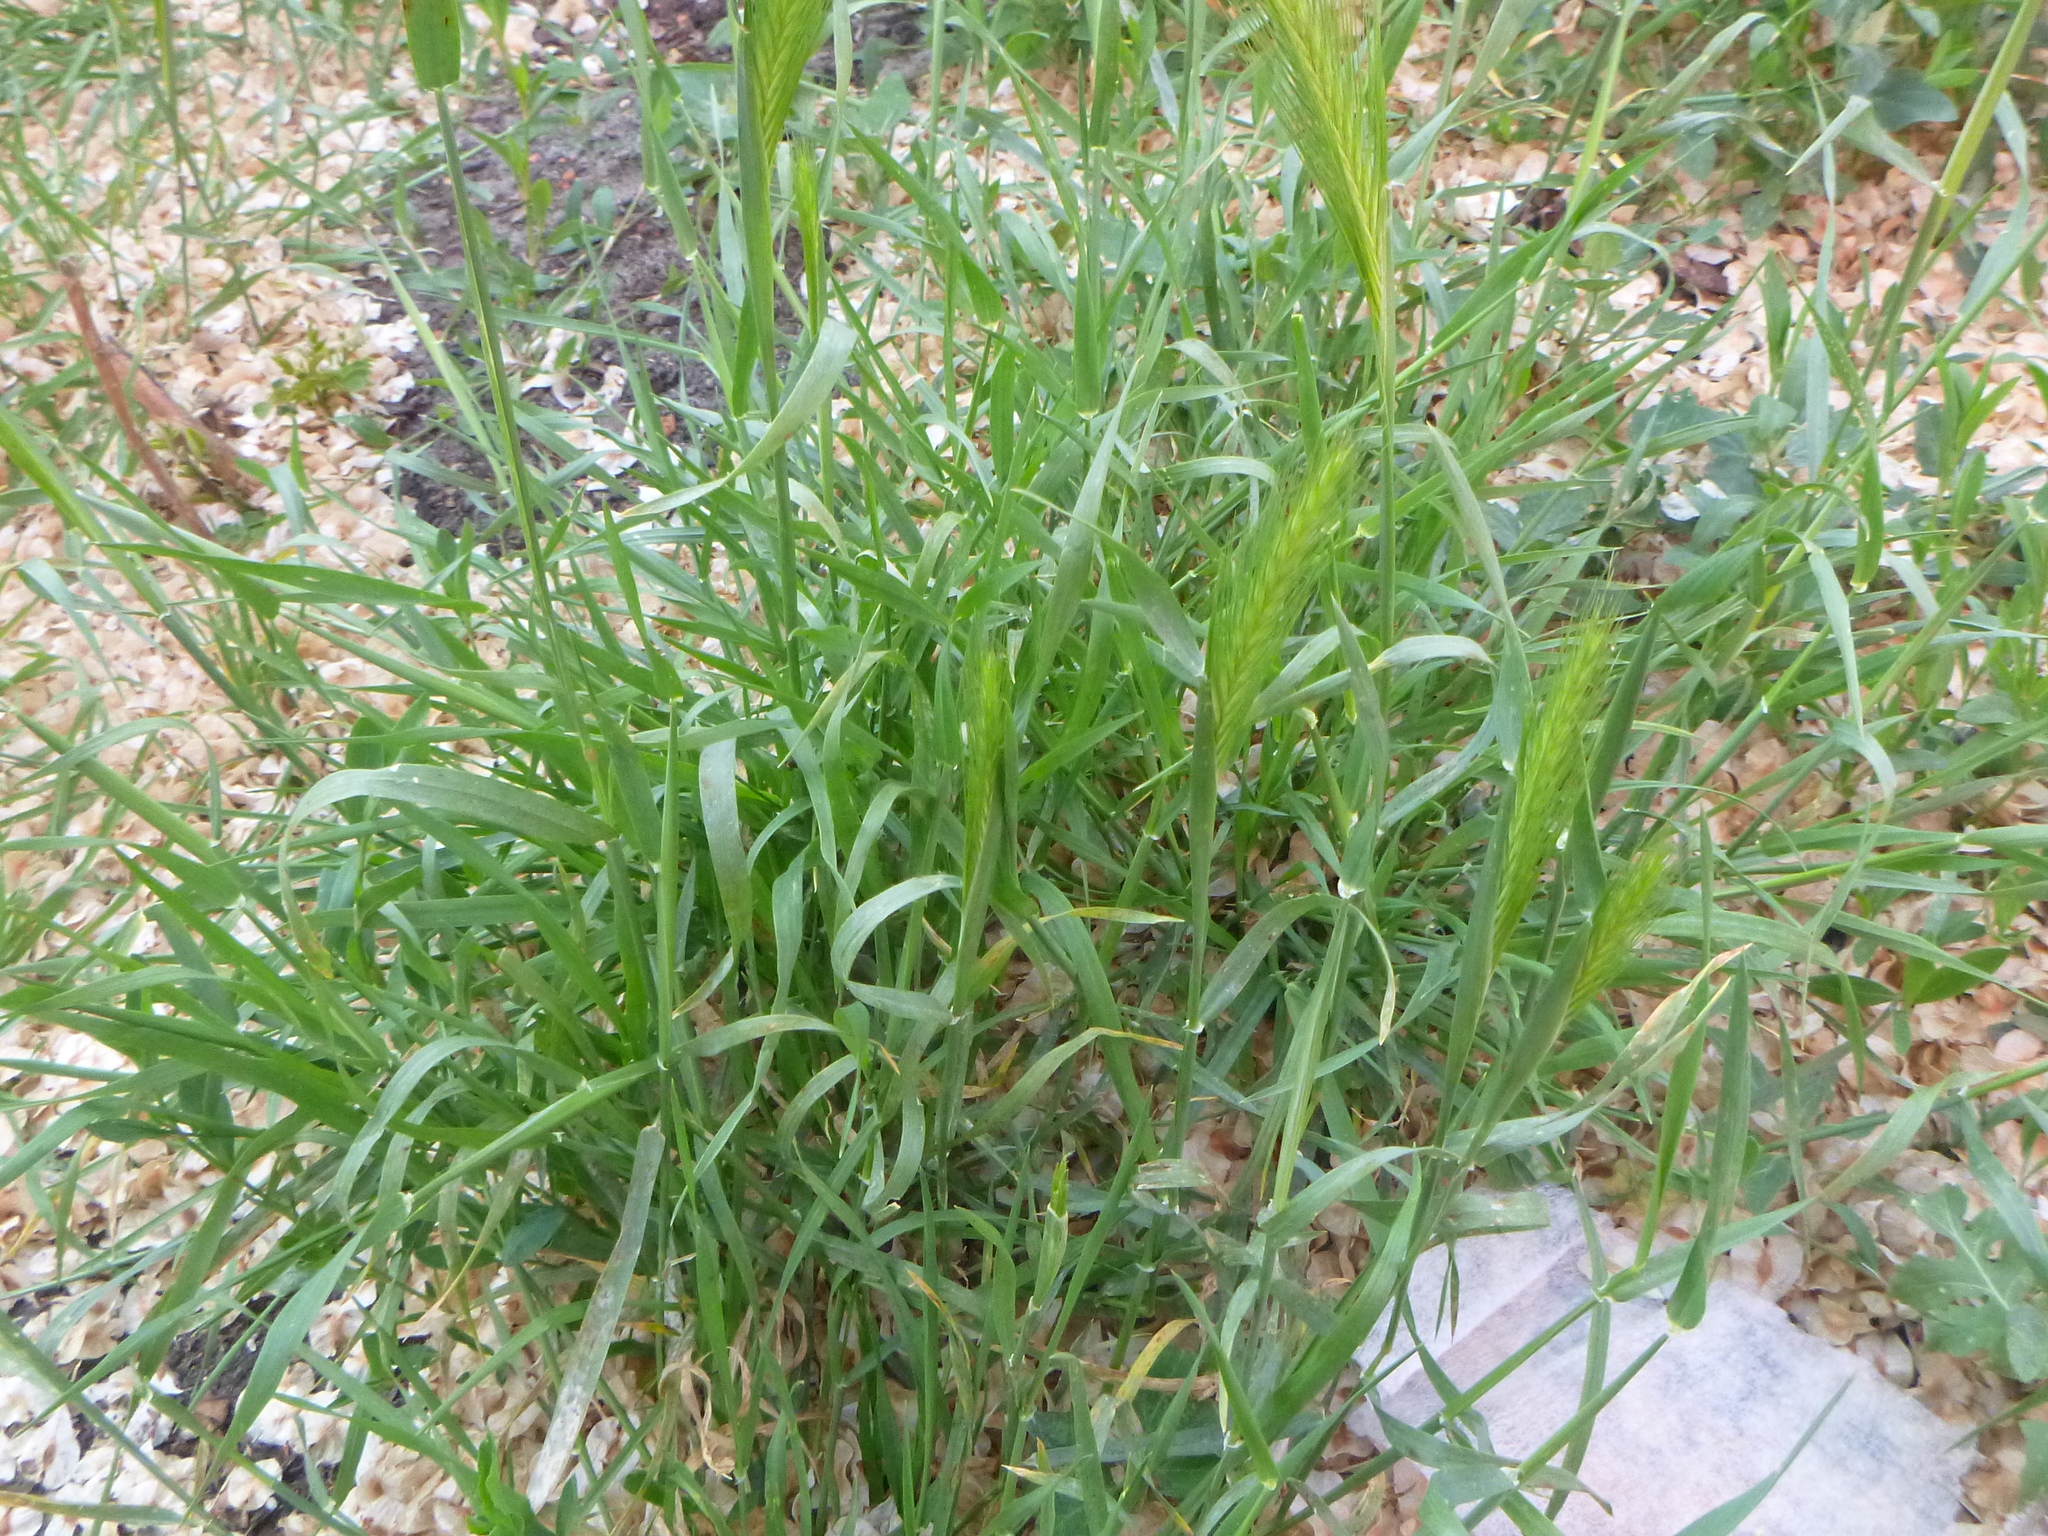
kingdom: Plantae
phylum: Tracheophyta
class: Liliopsida
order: Poales
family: Poaceae
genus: Hordeum
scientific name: Hordeum murinum
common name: Wall barley
